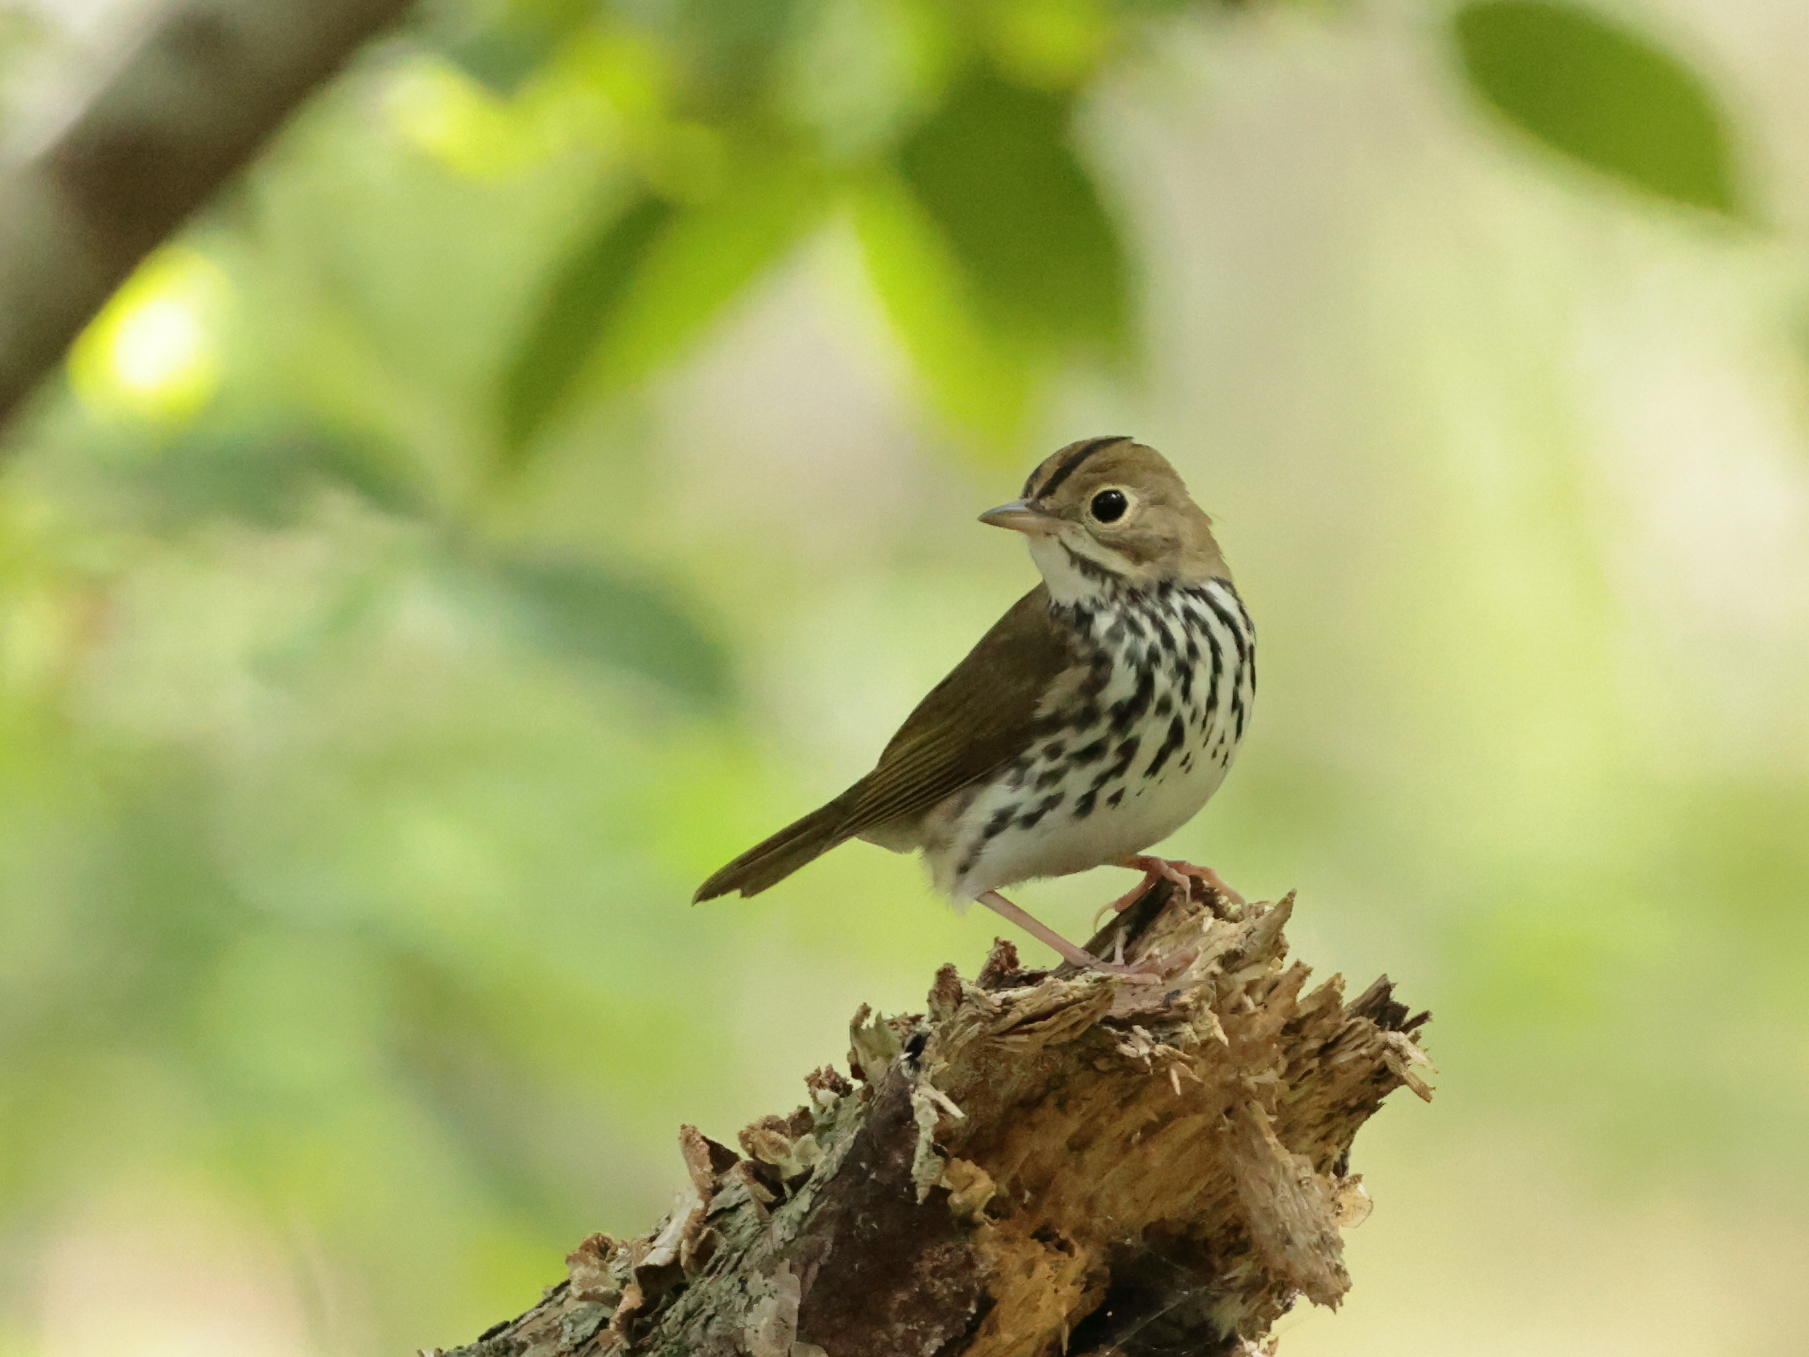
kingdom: Animalia
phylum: Chordata
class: Aves
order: Passeriformes
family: Parulidae
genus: Seiurus
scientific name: Seiurus aurocapilla
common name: Ovenbird
